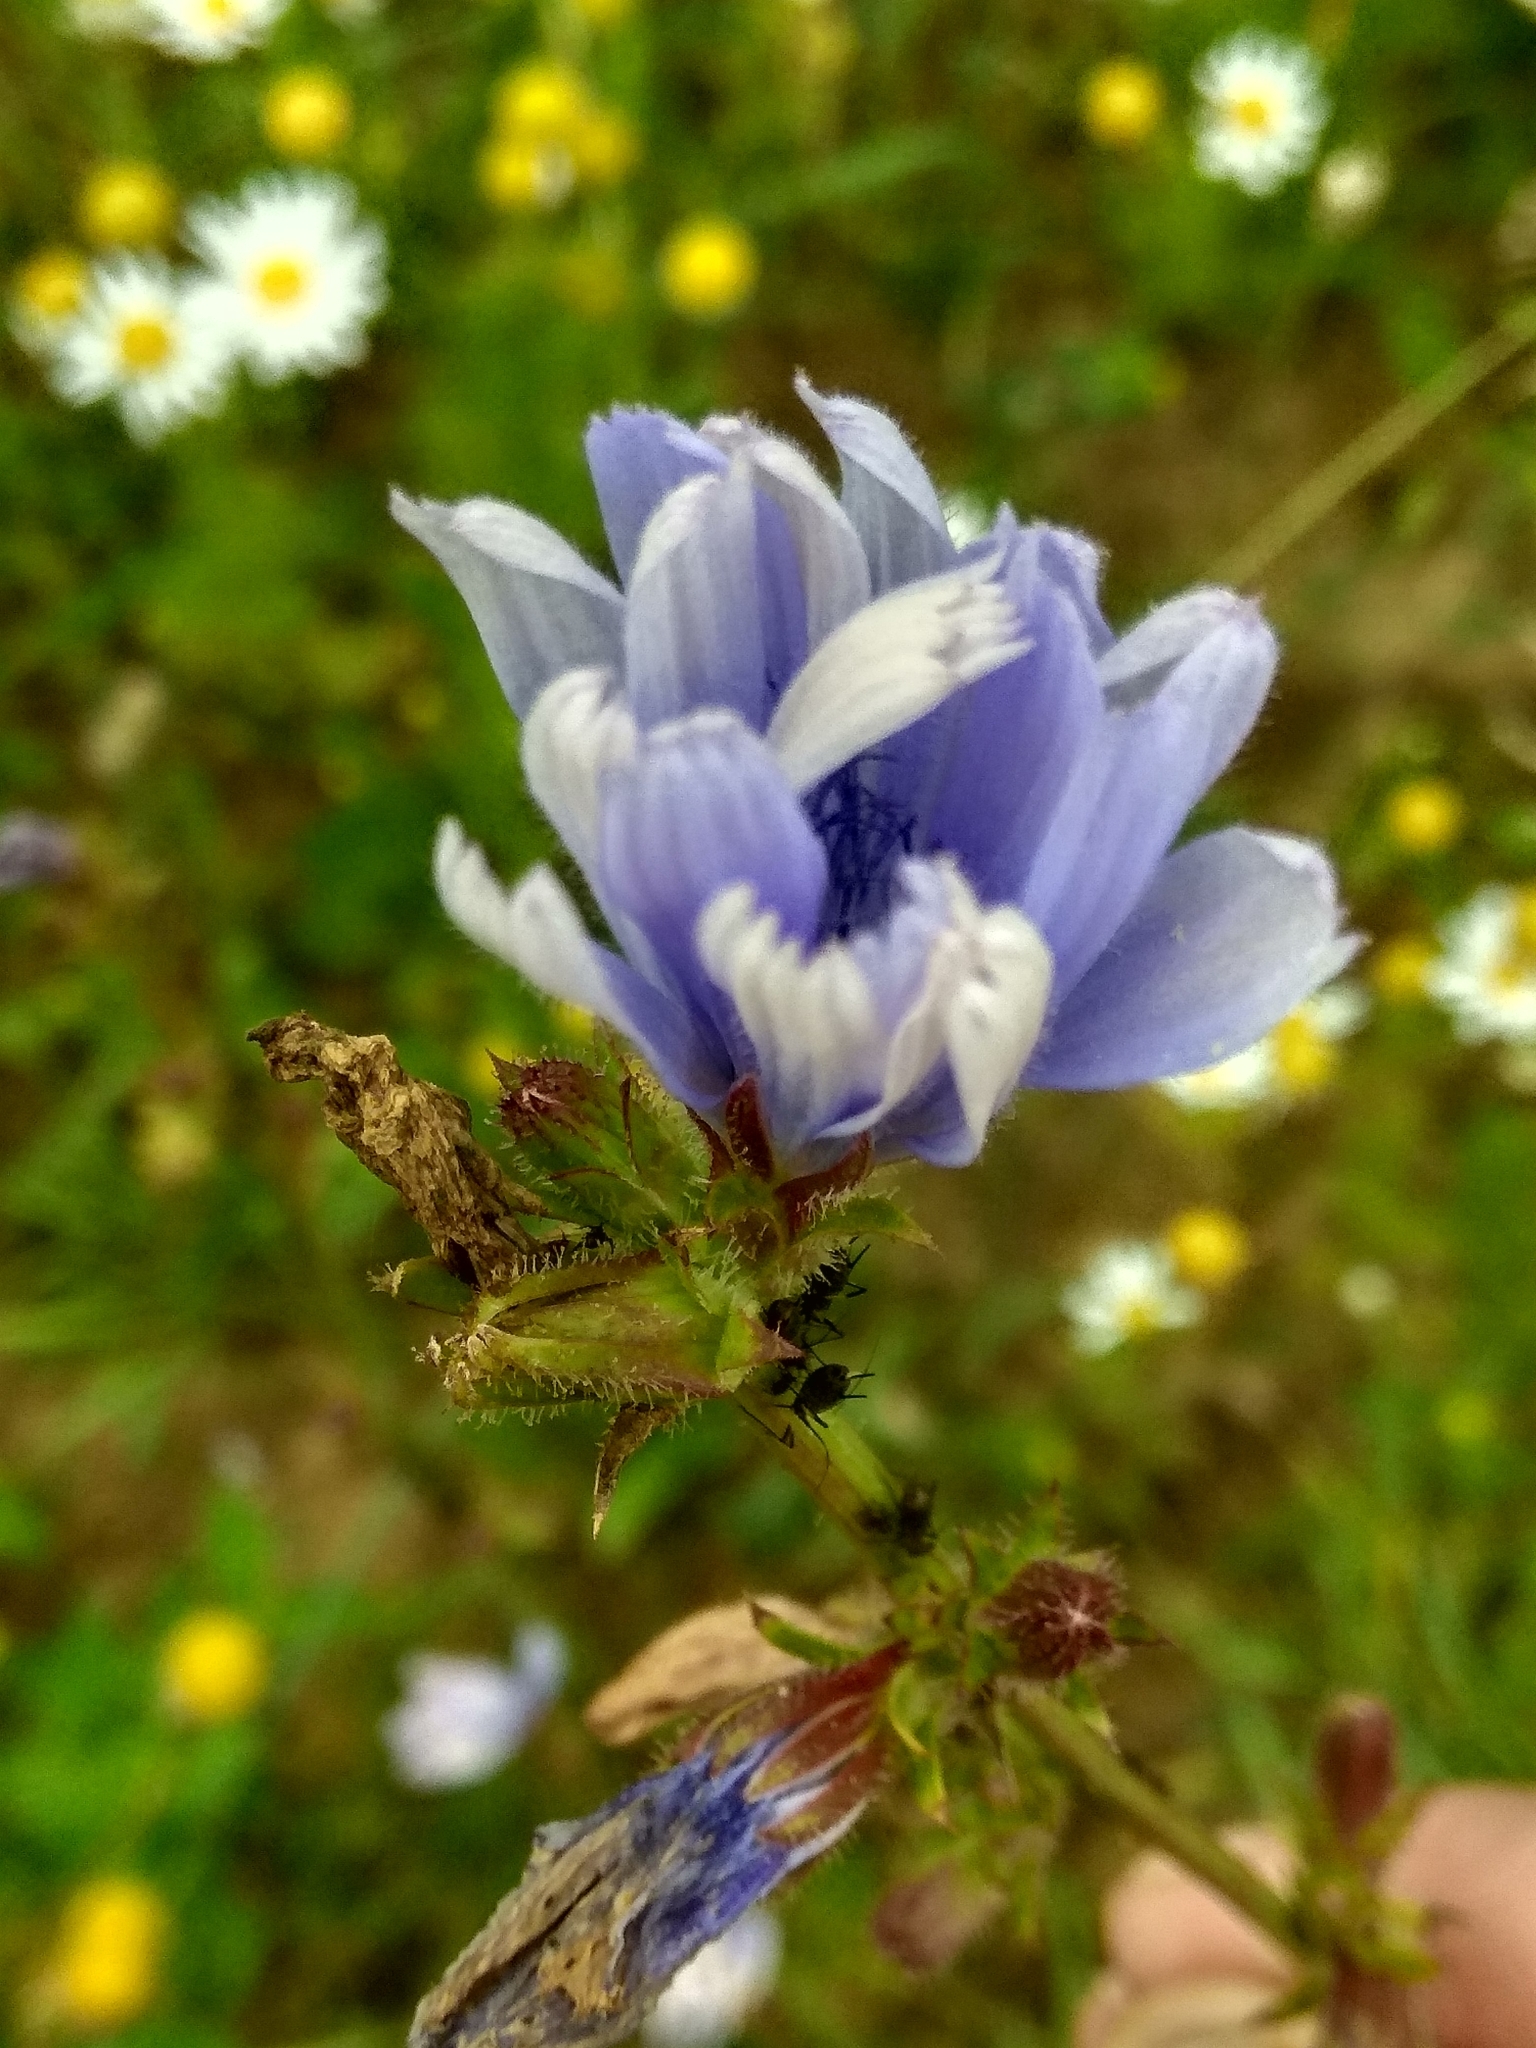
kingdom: Plantae
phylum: Tracheophyta
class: Magnoliopsida
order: Asterales
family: Asteraceae
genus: Cichorium
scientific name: Cichorium intybus
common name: Chicory
